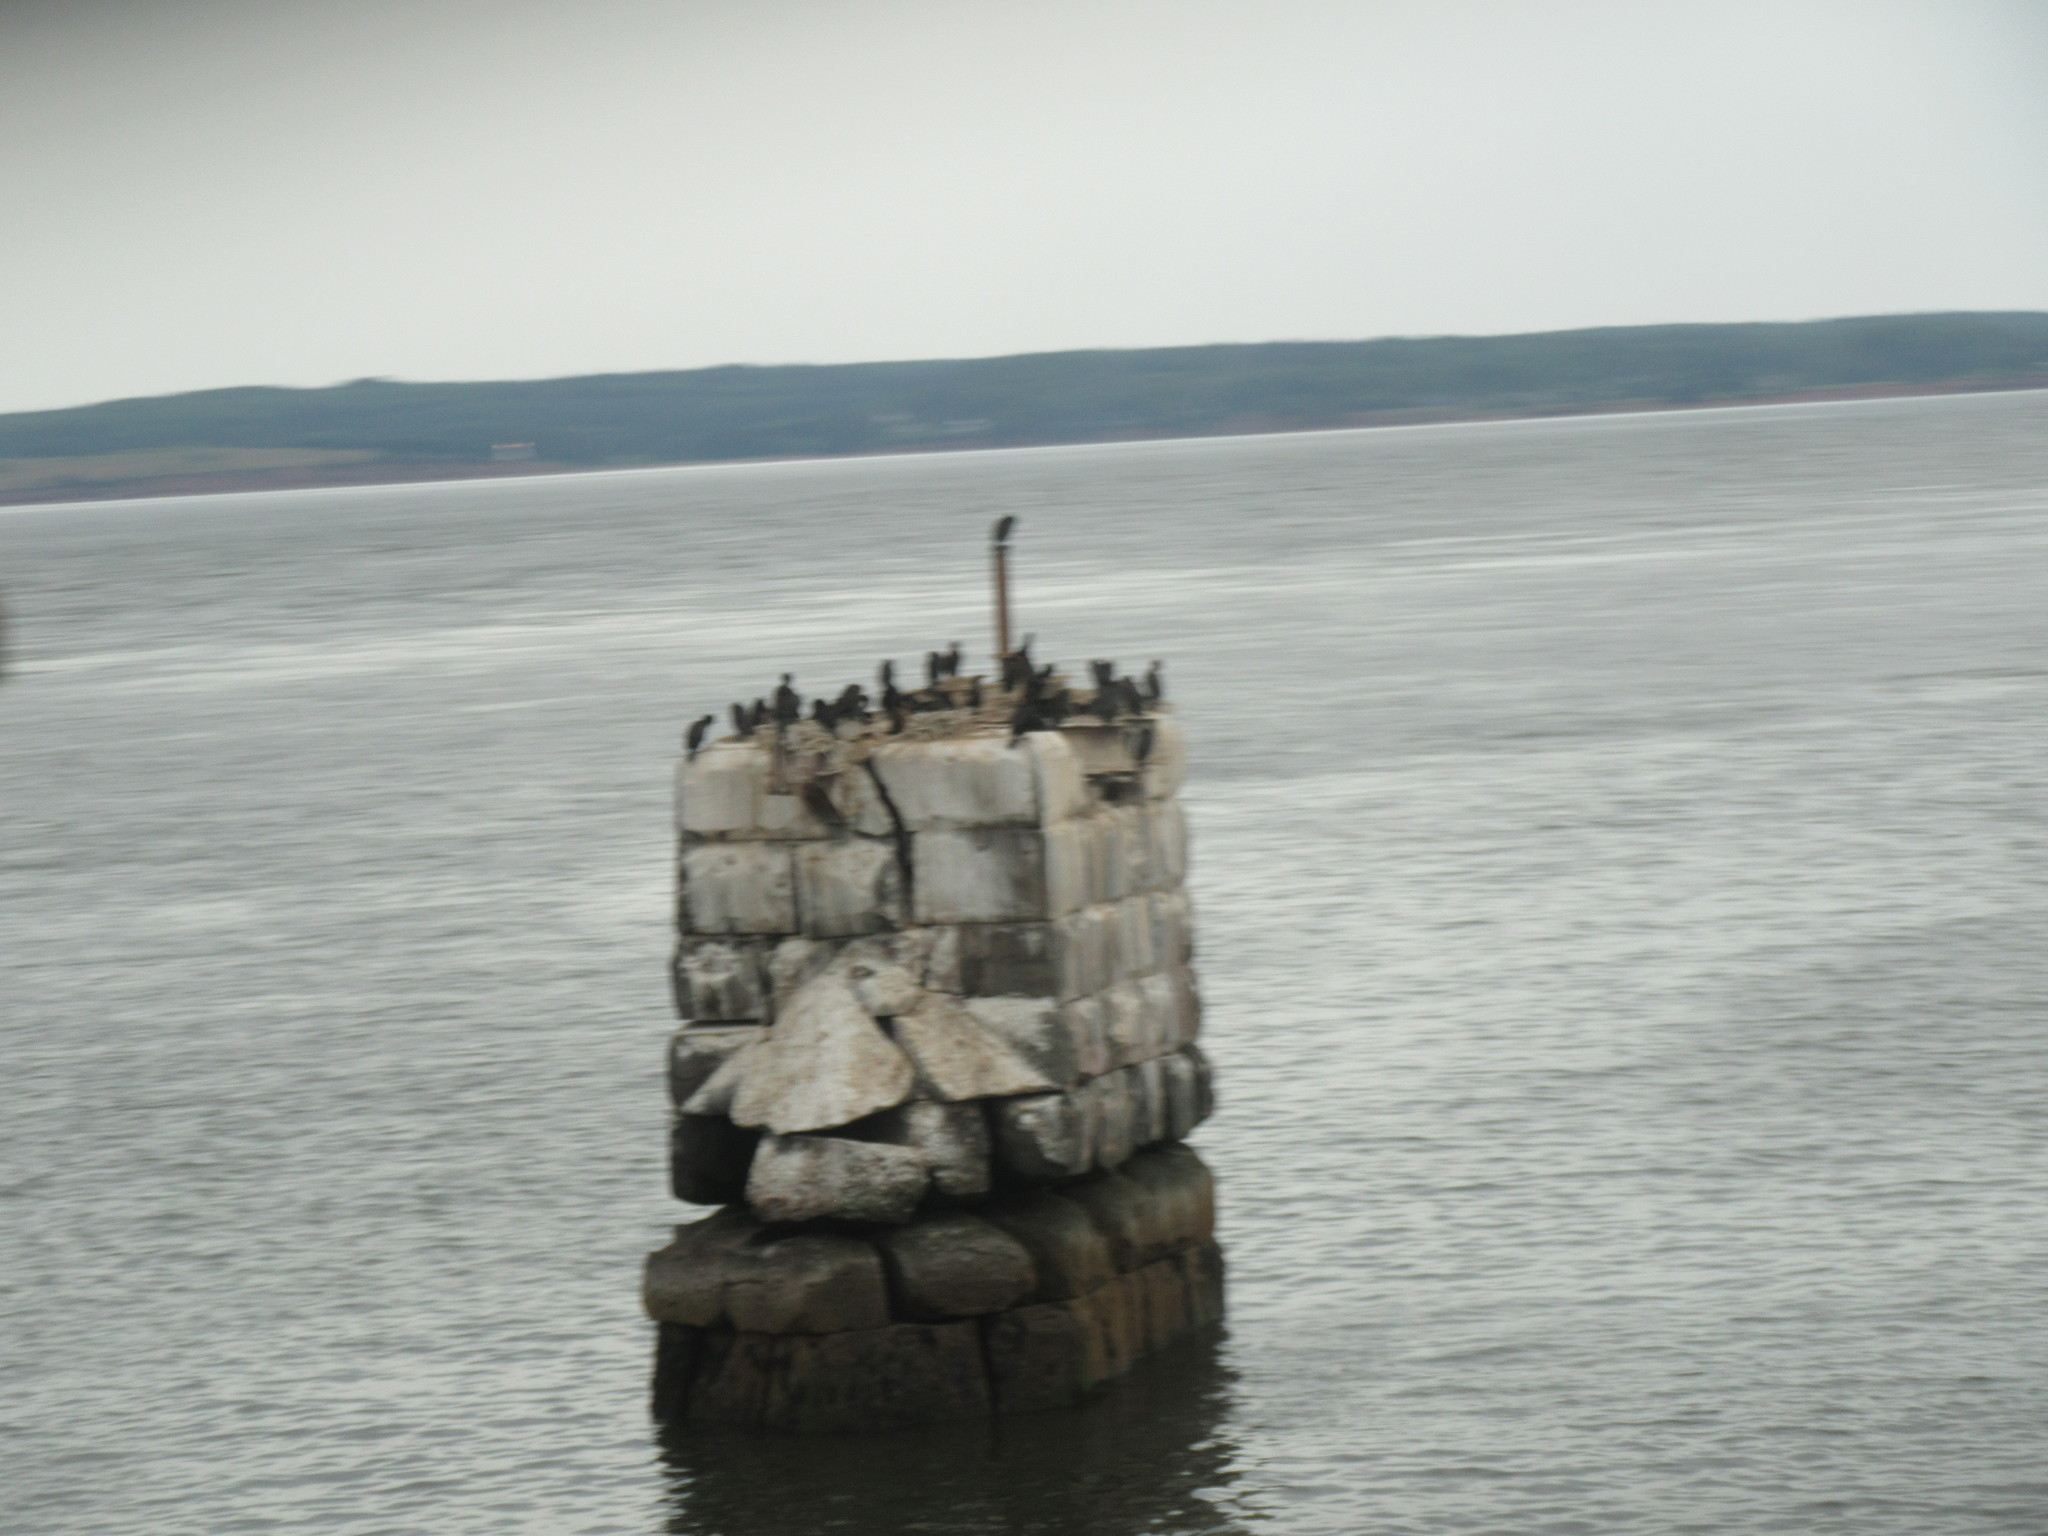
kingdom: Animalia
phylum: Chordata
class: Aves
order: Suliformes
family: Phalacrocoracidae
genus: Phalacrocorax
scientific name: Phalacrocorax auritus
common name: Double-crested cormorant
